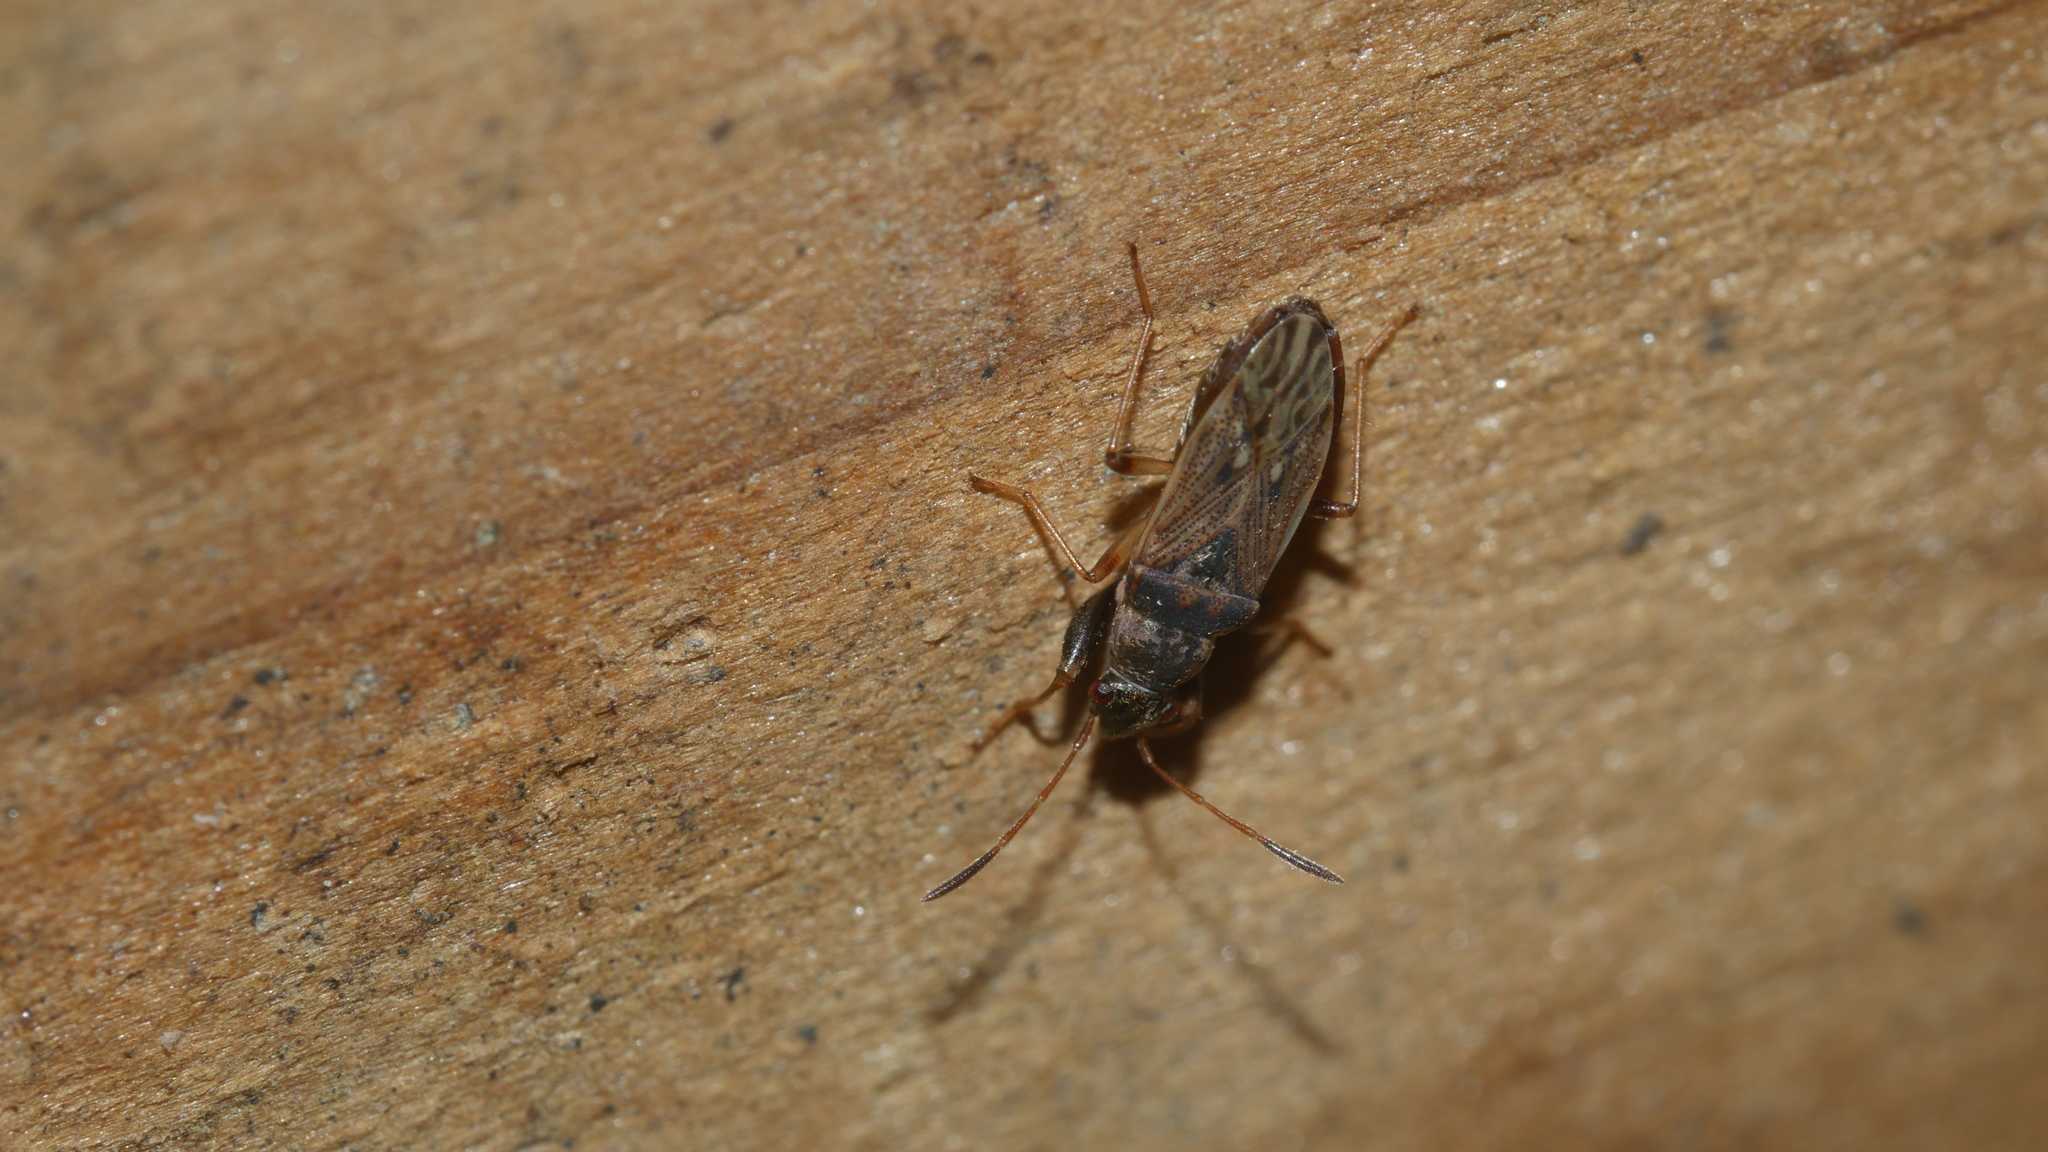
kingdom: Animalia
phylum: Arthropoda
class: Insecta
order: Hemiptera
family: Rhyparochromidae
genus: Pseudopachybrachius
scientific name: Pseudopachybrachius basalis
